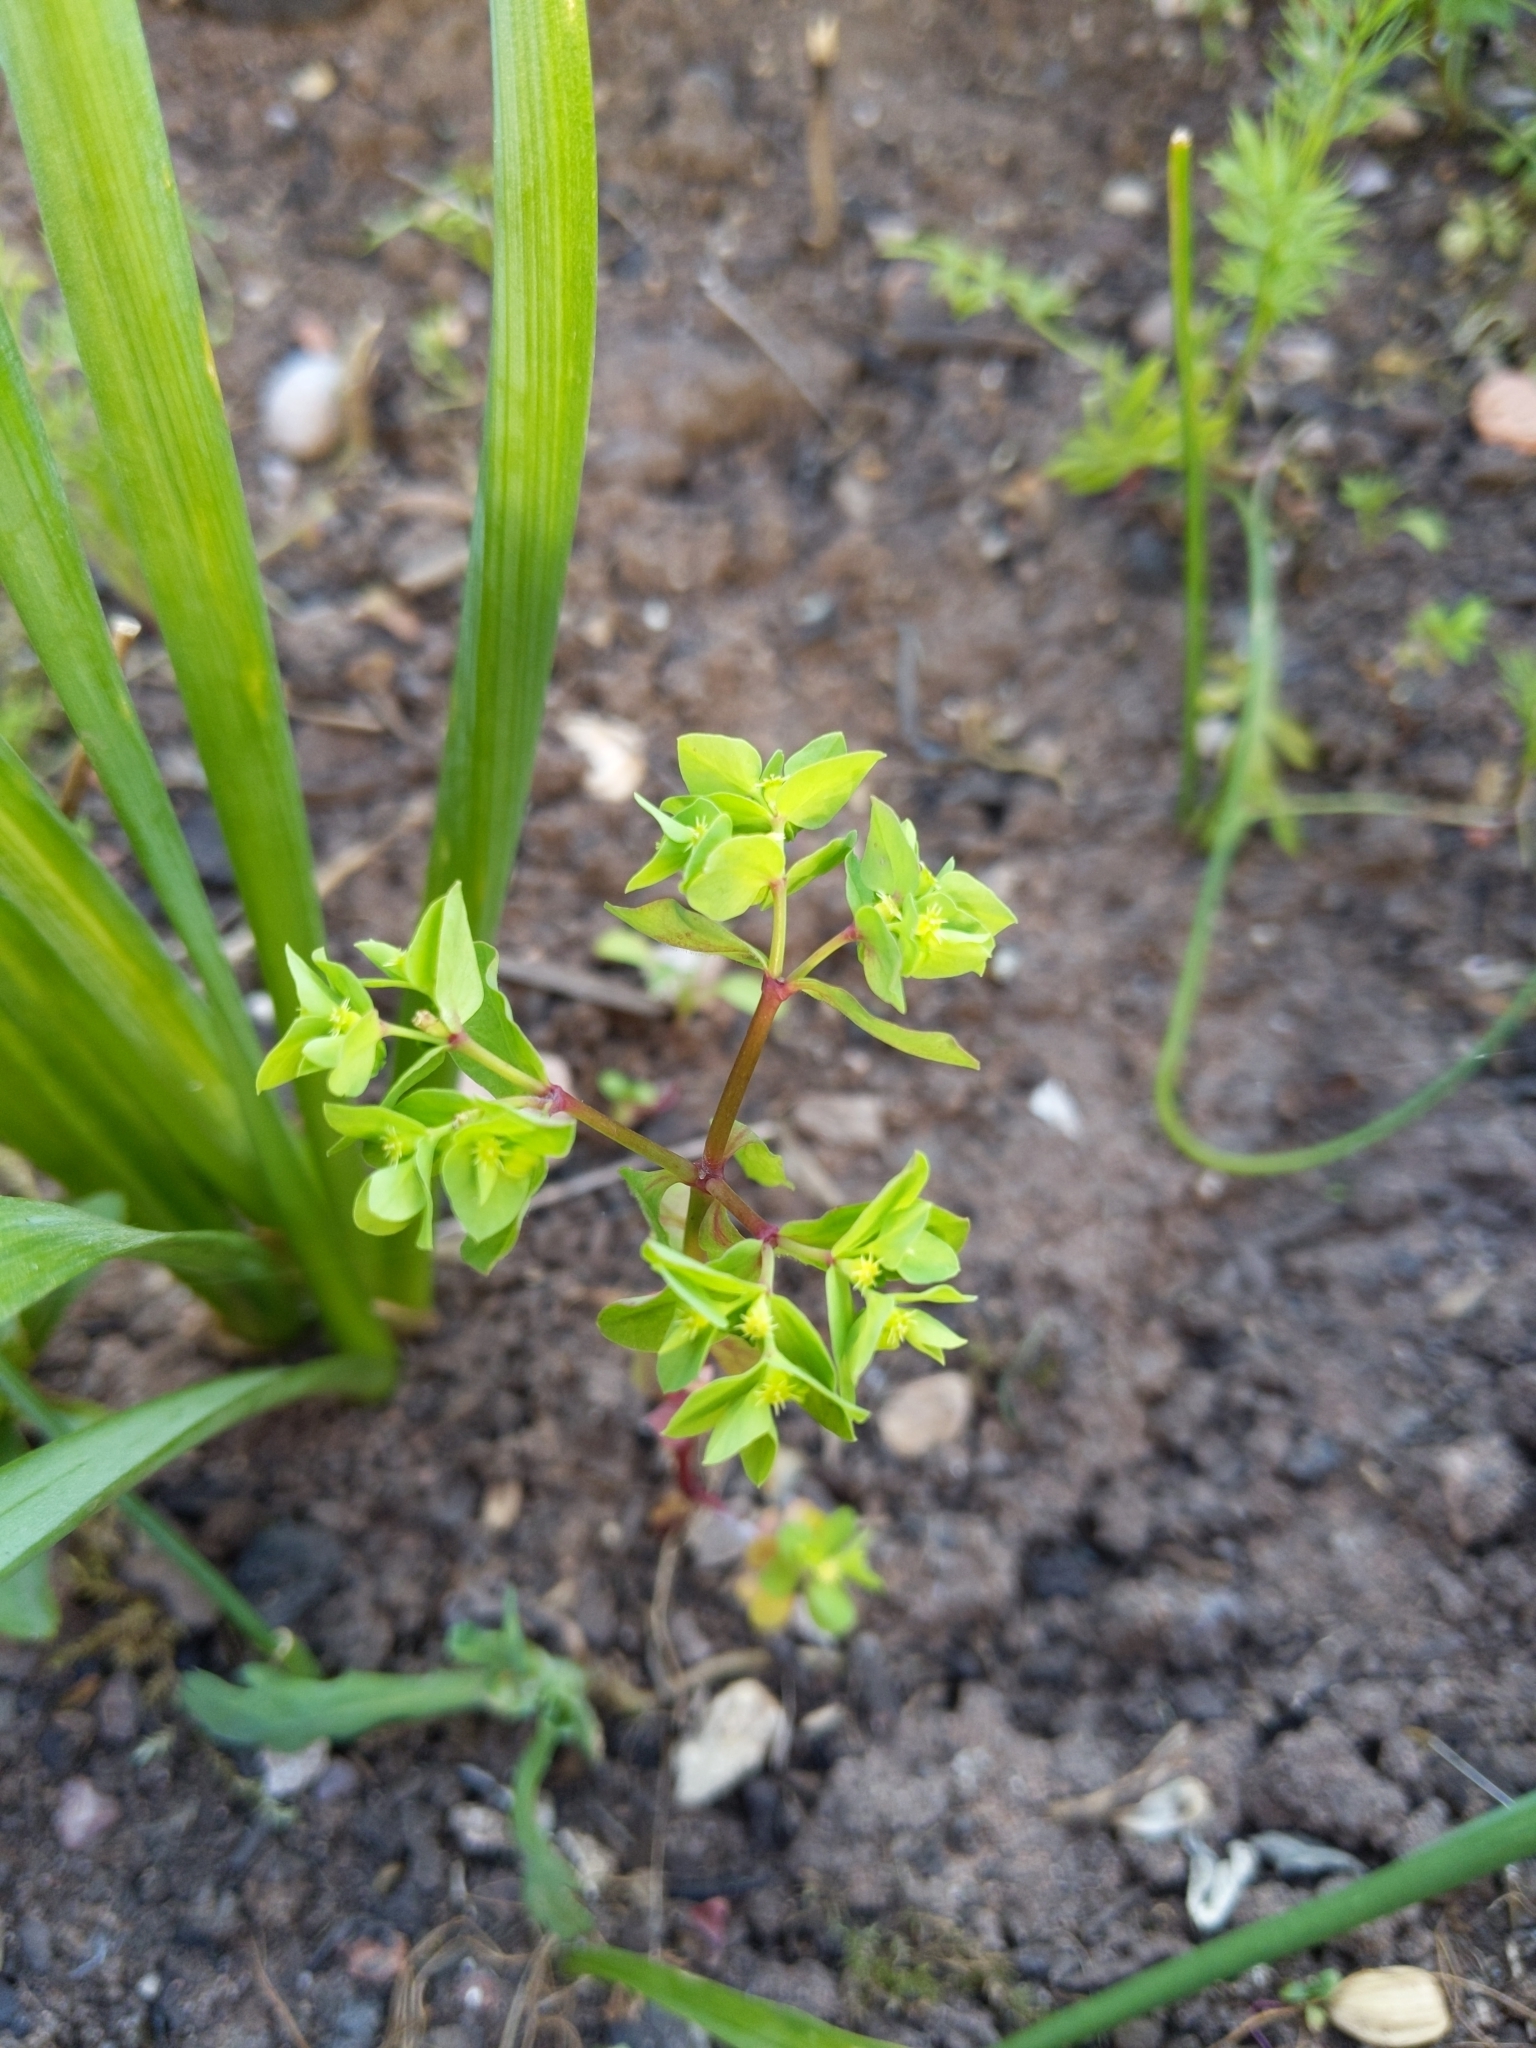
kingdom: Plantae
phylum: Tracheophyta
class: Magnoliopsida
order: Malpighiales
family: Euphorbiaceae
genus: Euphorbia
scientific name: Euphorbia peplus
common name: Petty spurge
